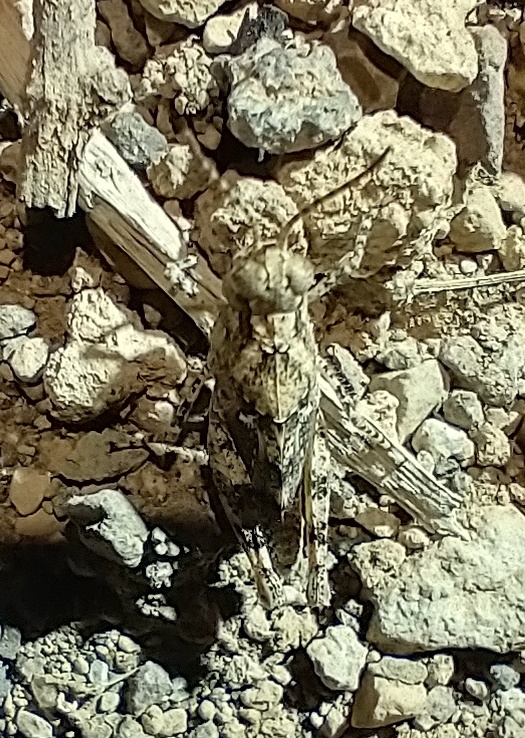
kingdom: Animalia
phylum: Arthropoda
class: Insecta
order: Orthoptera
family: Acrididae
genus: Sphingonotus
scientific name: Sphingonotus picteti
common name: Tenerife sand grasshopper
